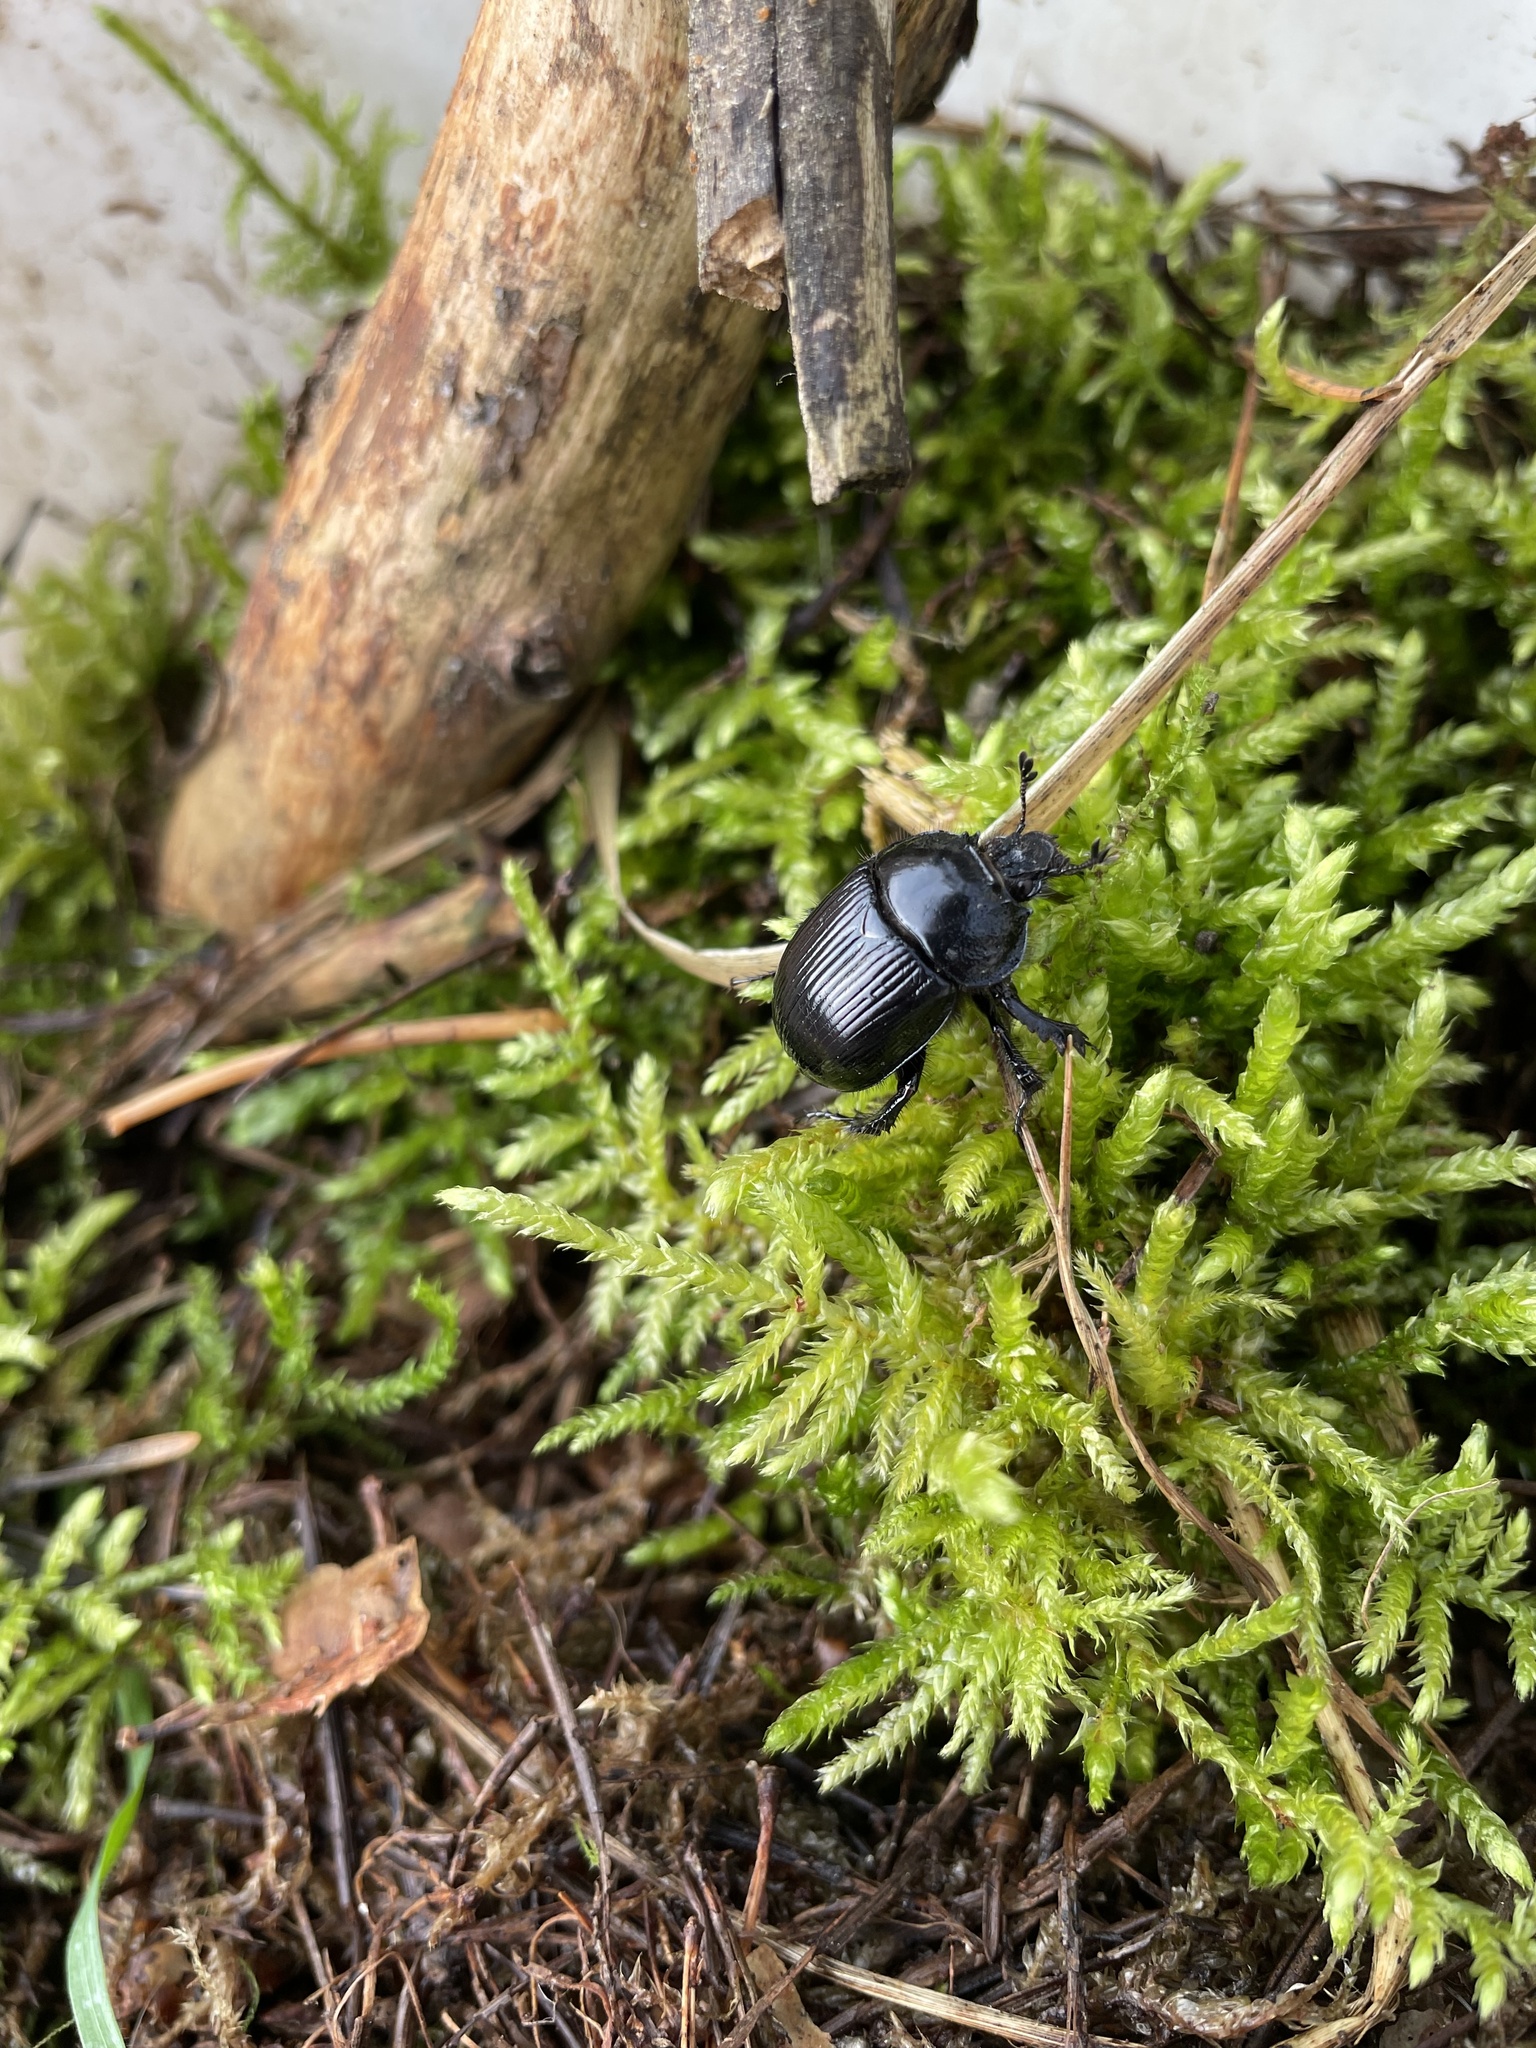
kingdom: Animalia
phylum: Arthropoda
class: Insecta
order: Coleoptera
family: Geotrupidae
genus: Typhaeus
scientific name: Typhaeus typhoeus
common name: Minotaur beetle
